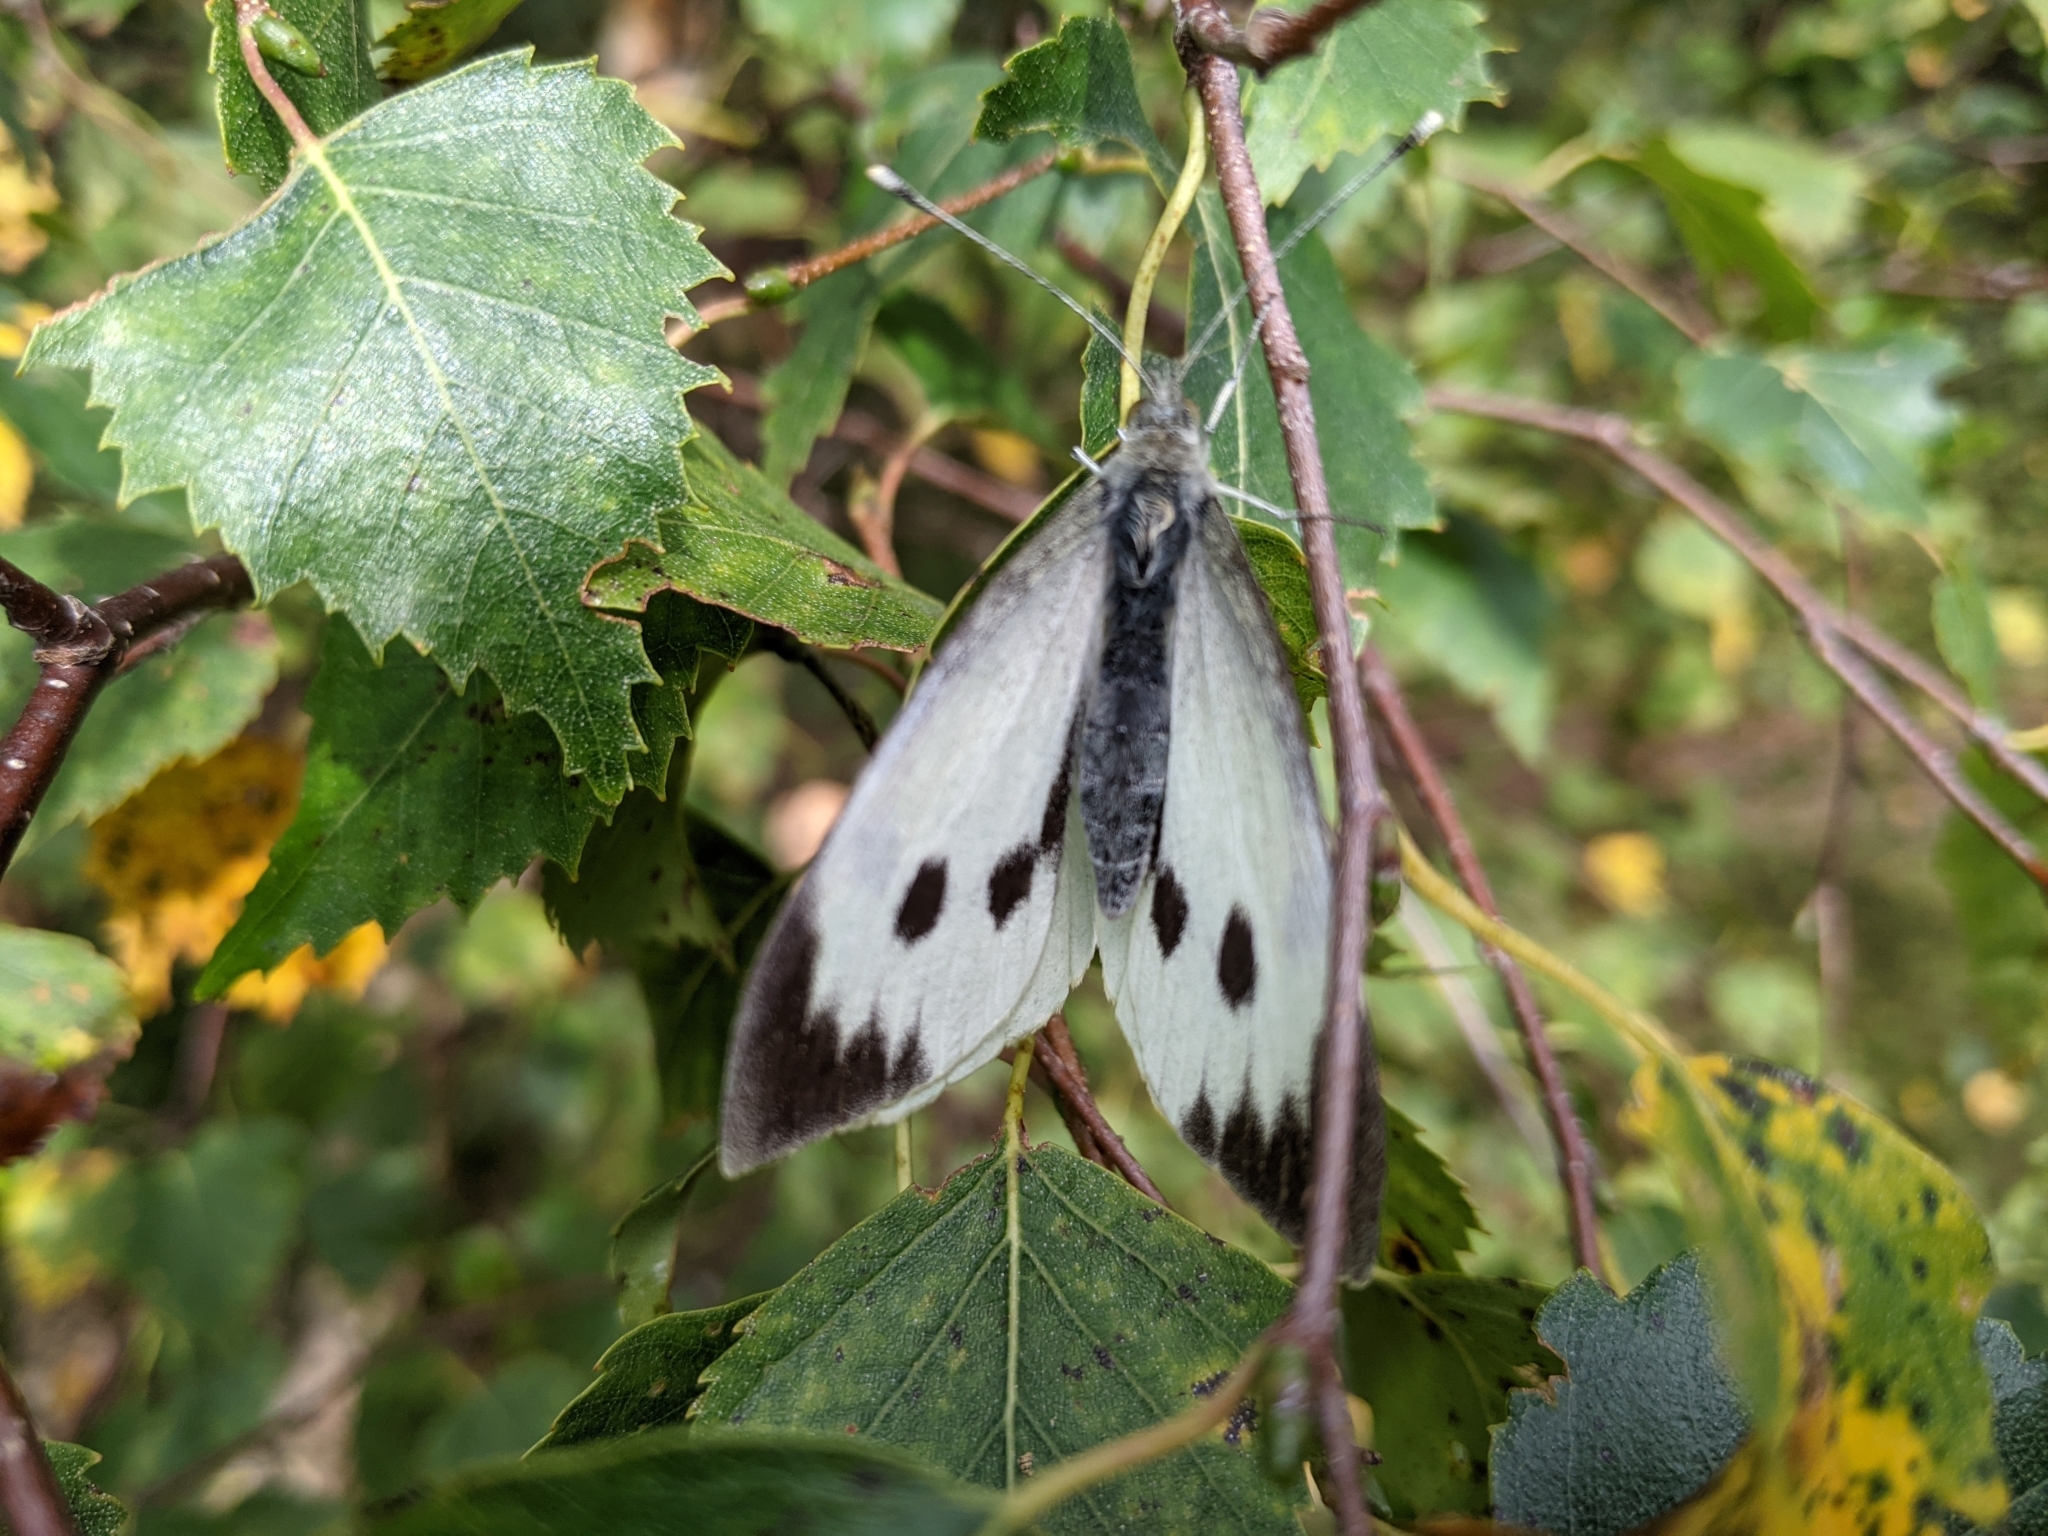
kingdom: Animalia
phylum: Arthropoda
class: Insecta
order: Lepidoptera
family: Pieridae
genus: Pieris
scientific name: Pieris brassicae
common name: Large white
